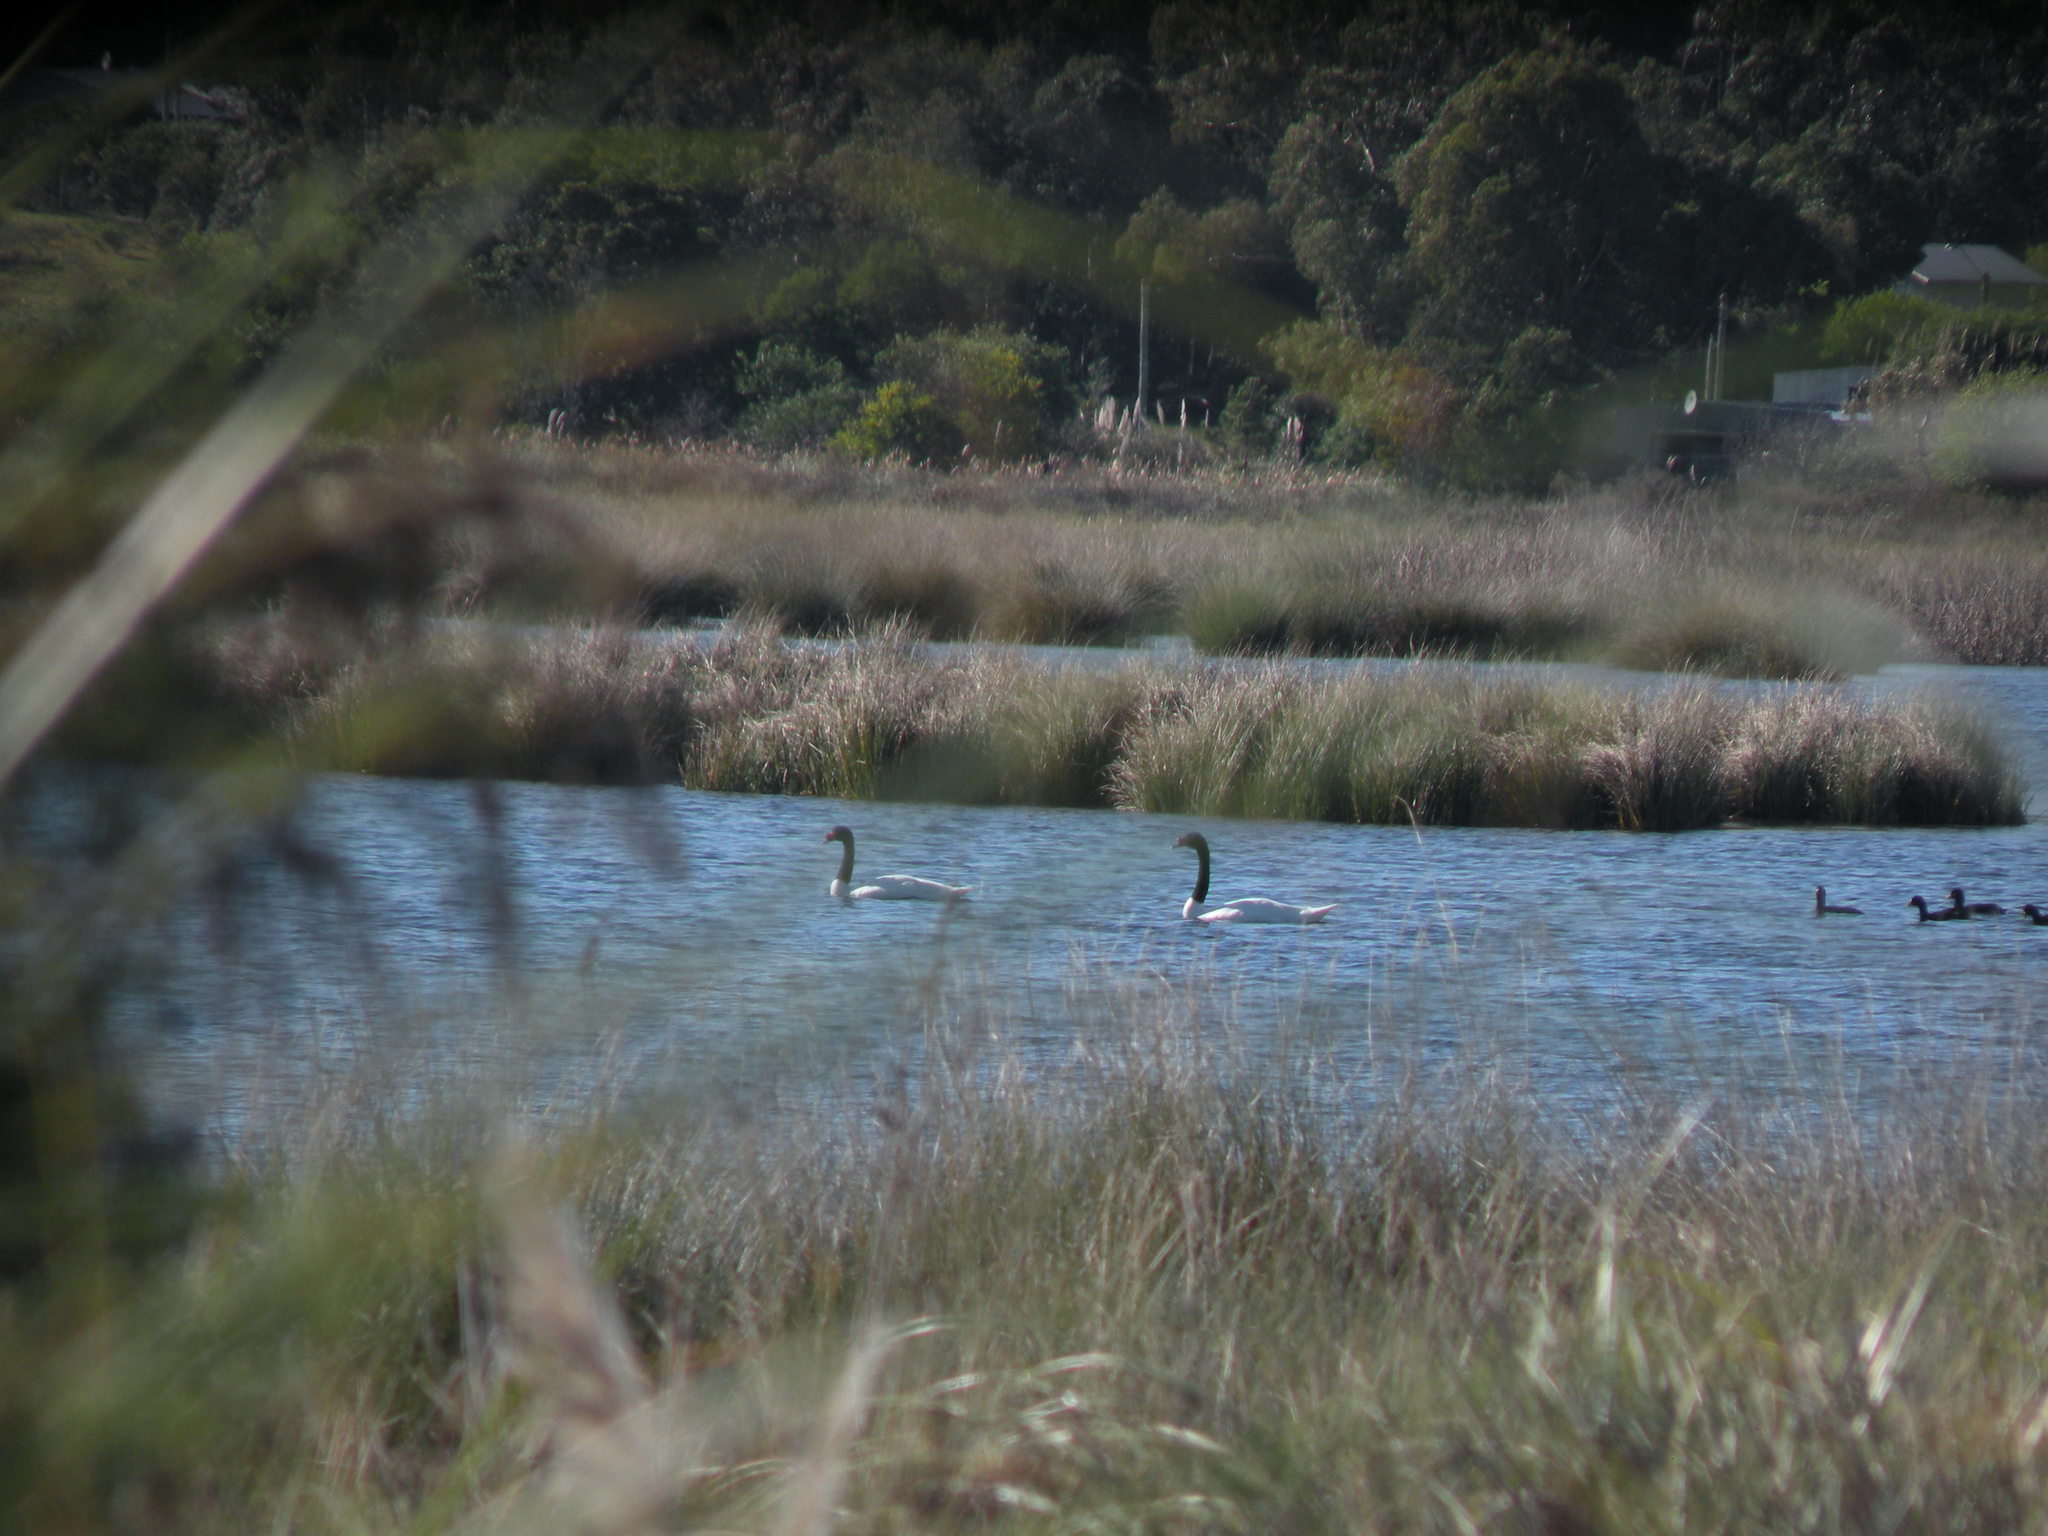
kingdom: Animalia
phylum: Chordata
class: Aves
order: Anseriformes
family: Anatidae
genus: Cygnus
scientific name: Cygnus melancoryphus
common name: Black-necked swan
